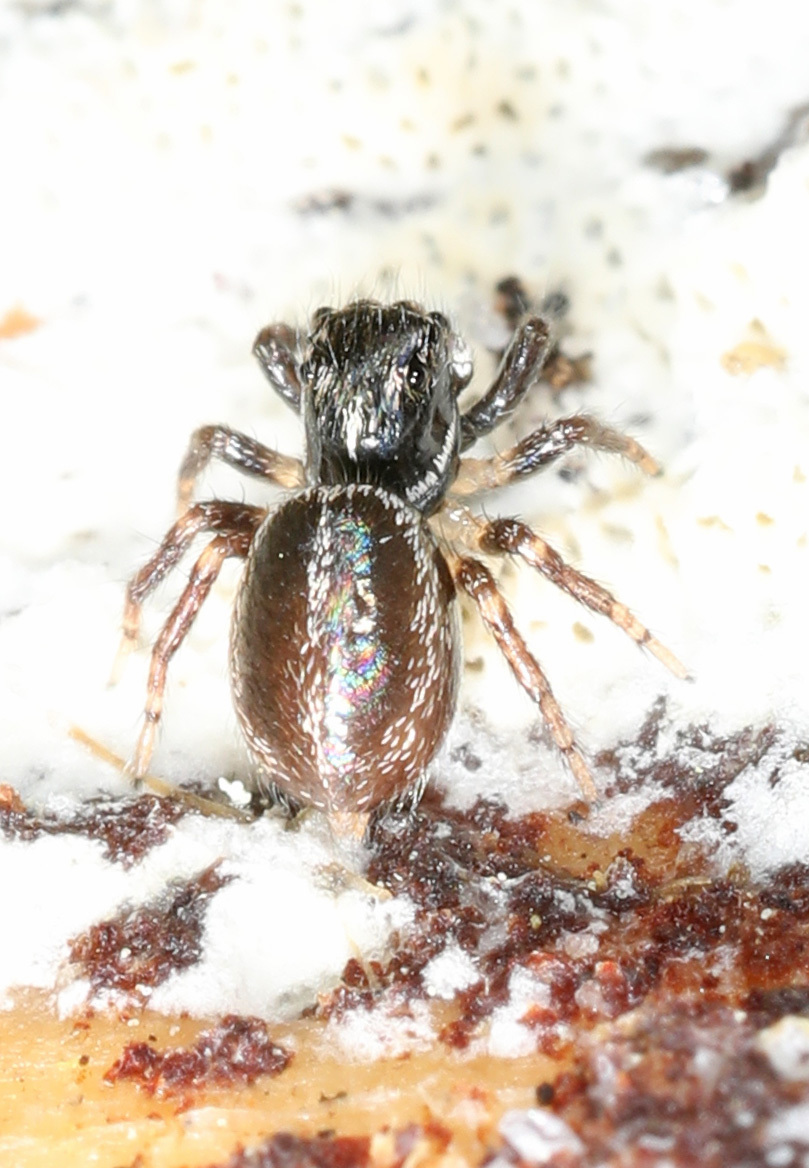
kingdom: Animalia
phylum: Arthropoda
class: Arachnida
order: Araneae
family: Salticidae
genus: Anasaitis
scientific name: Anasaitis canosa
